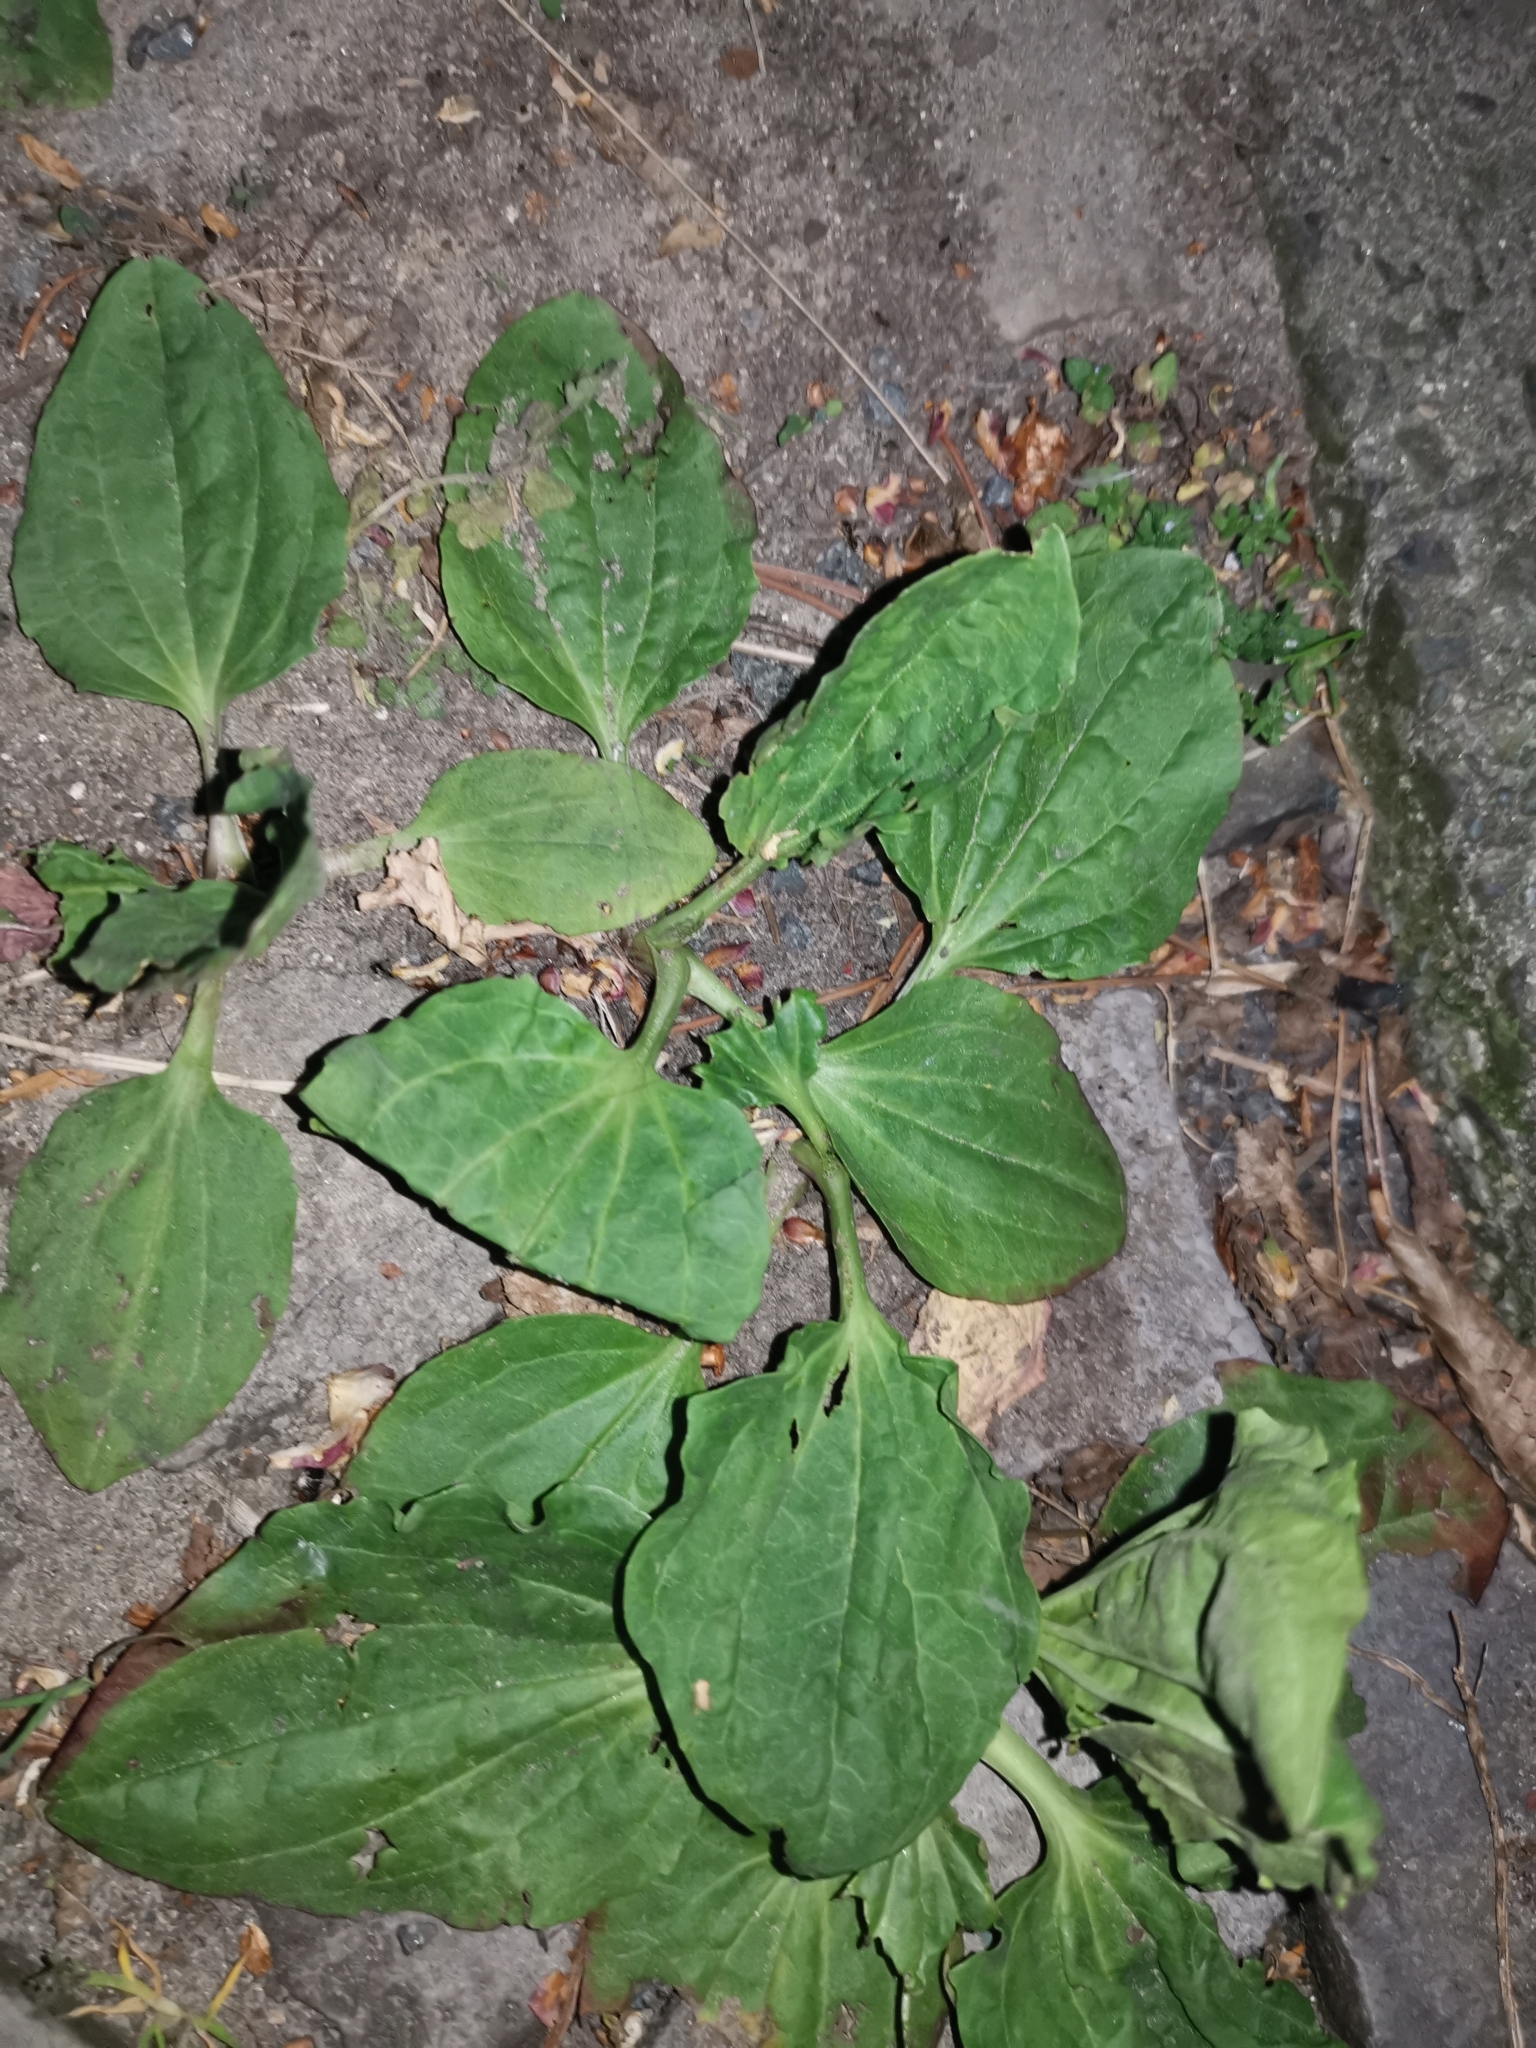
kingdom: Plantae
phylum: Tracheophyta
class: Magnoliopsida
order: Lamiales
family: Plantaginaceae
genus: Plantago
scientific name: Plantago major
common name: Common plantain
